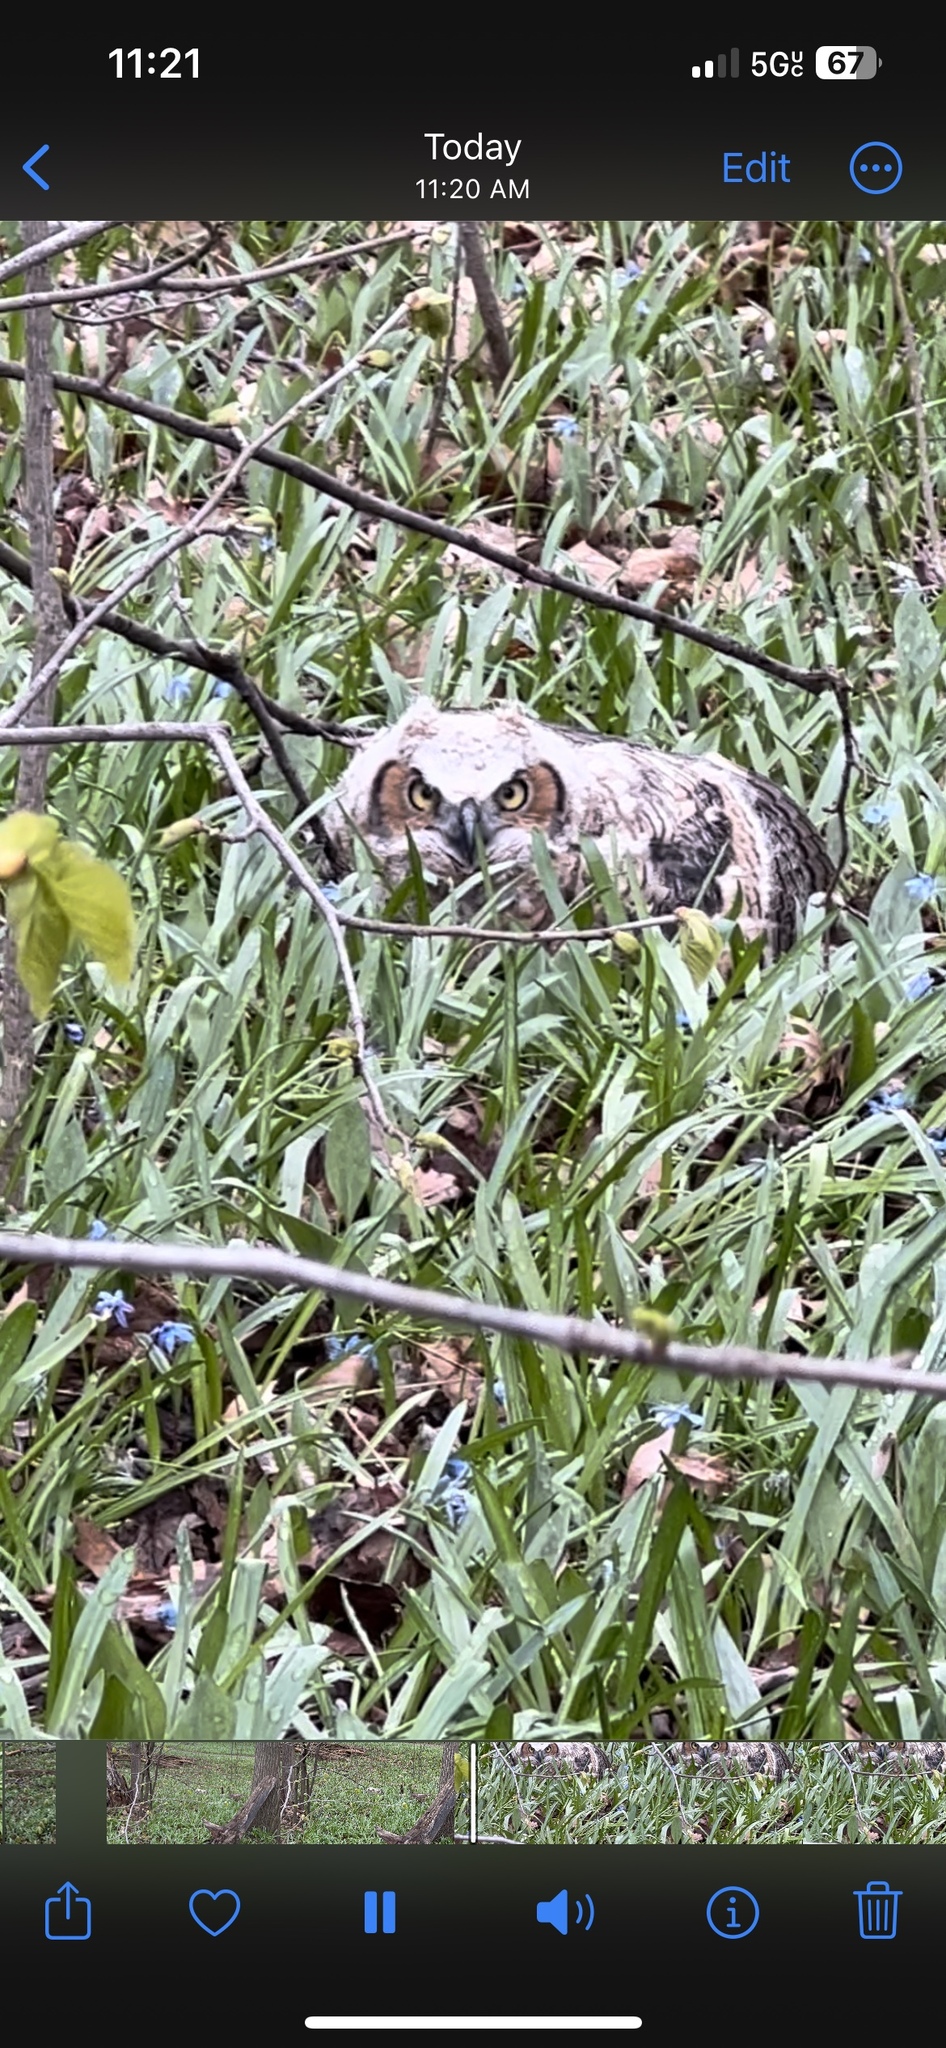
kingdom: Animalia
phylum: Chordata
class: Aves
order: Strigiformes
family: Strigidae
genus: Bubo
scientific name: Bubo virginianus
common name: Great horned owl
